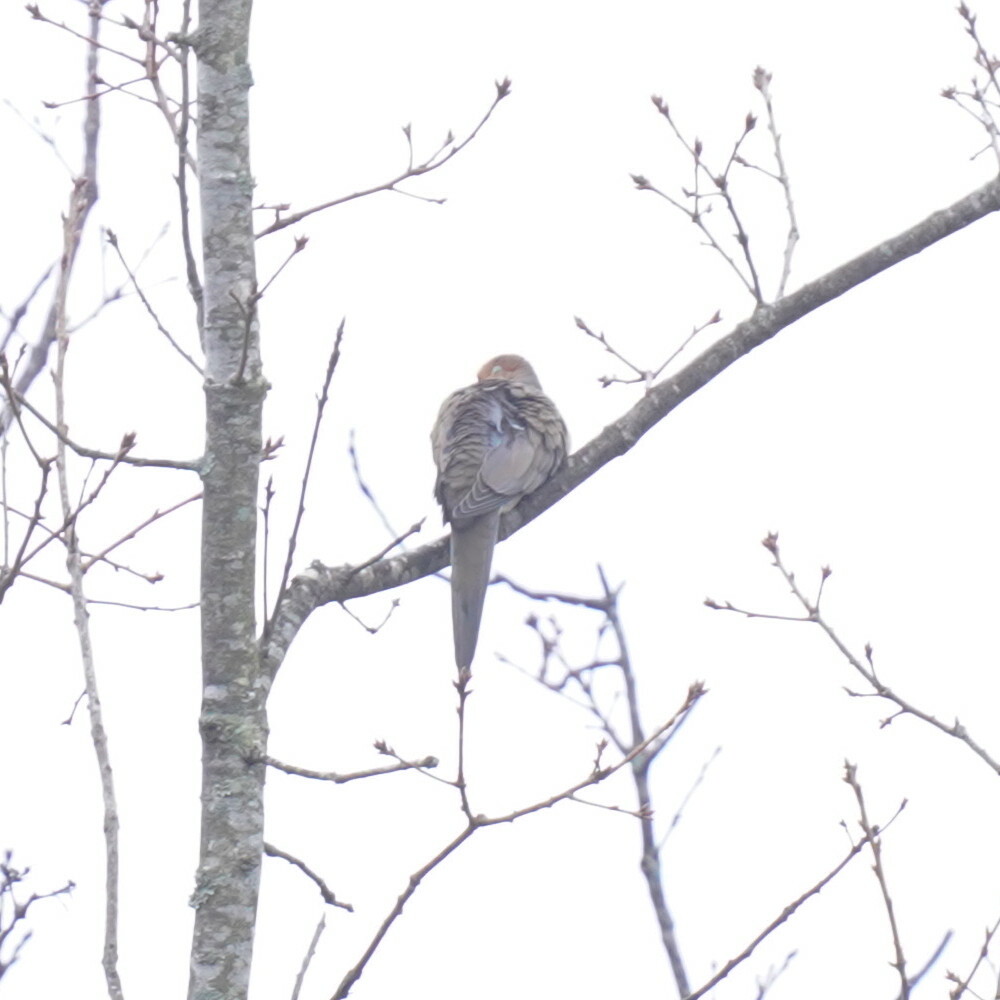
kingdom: Animalia
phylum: Chordata
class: Aves
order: Columbiformes
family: Columbidae
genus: Zenaida
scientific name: Zenaida macroura
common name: Mourning dove
